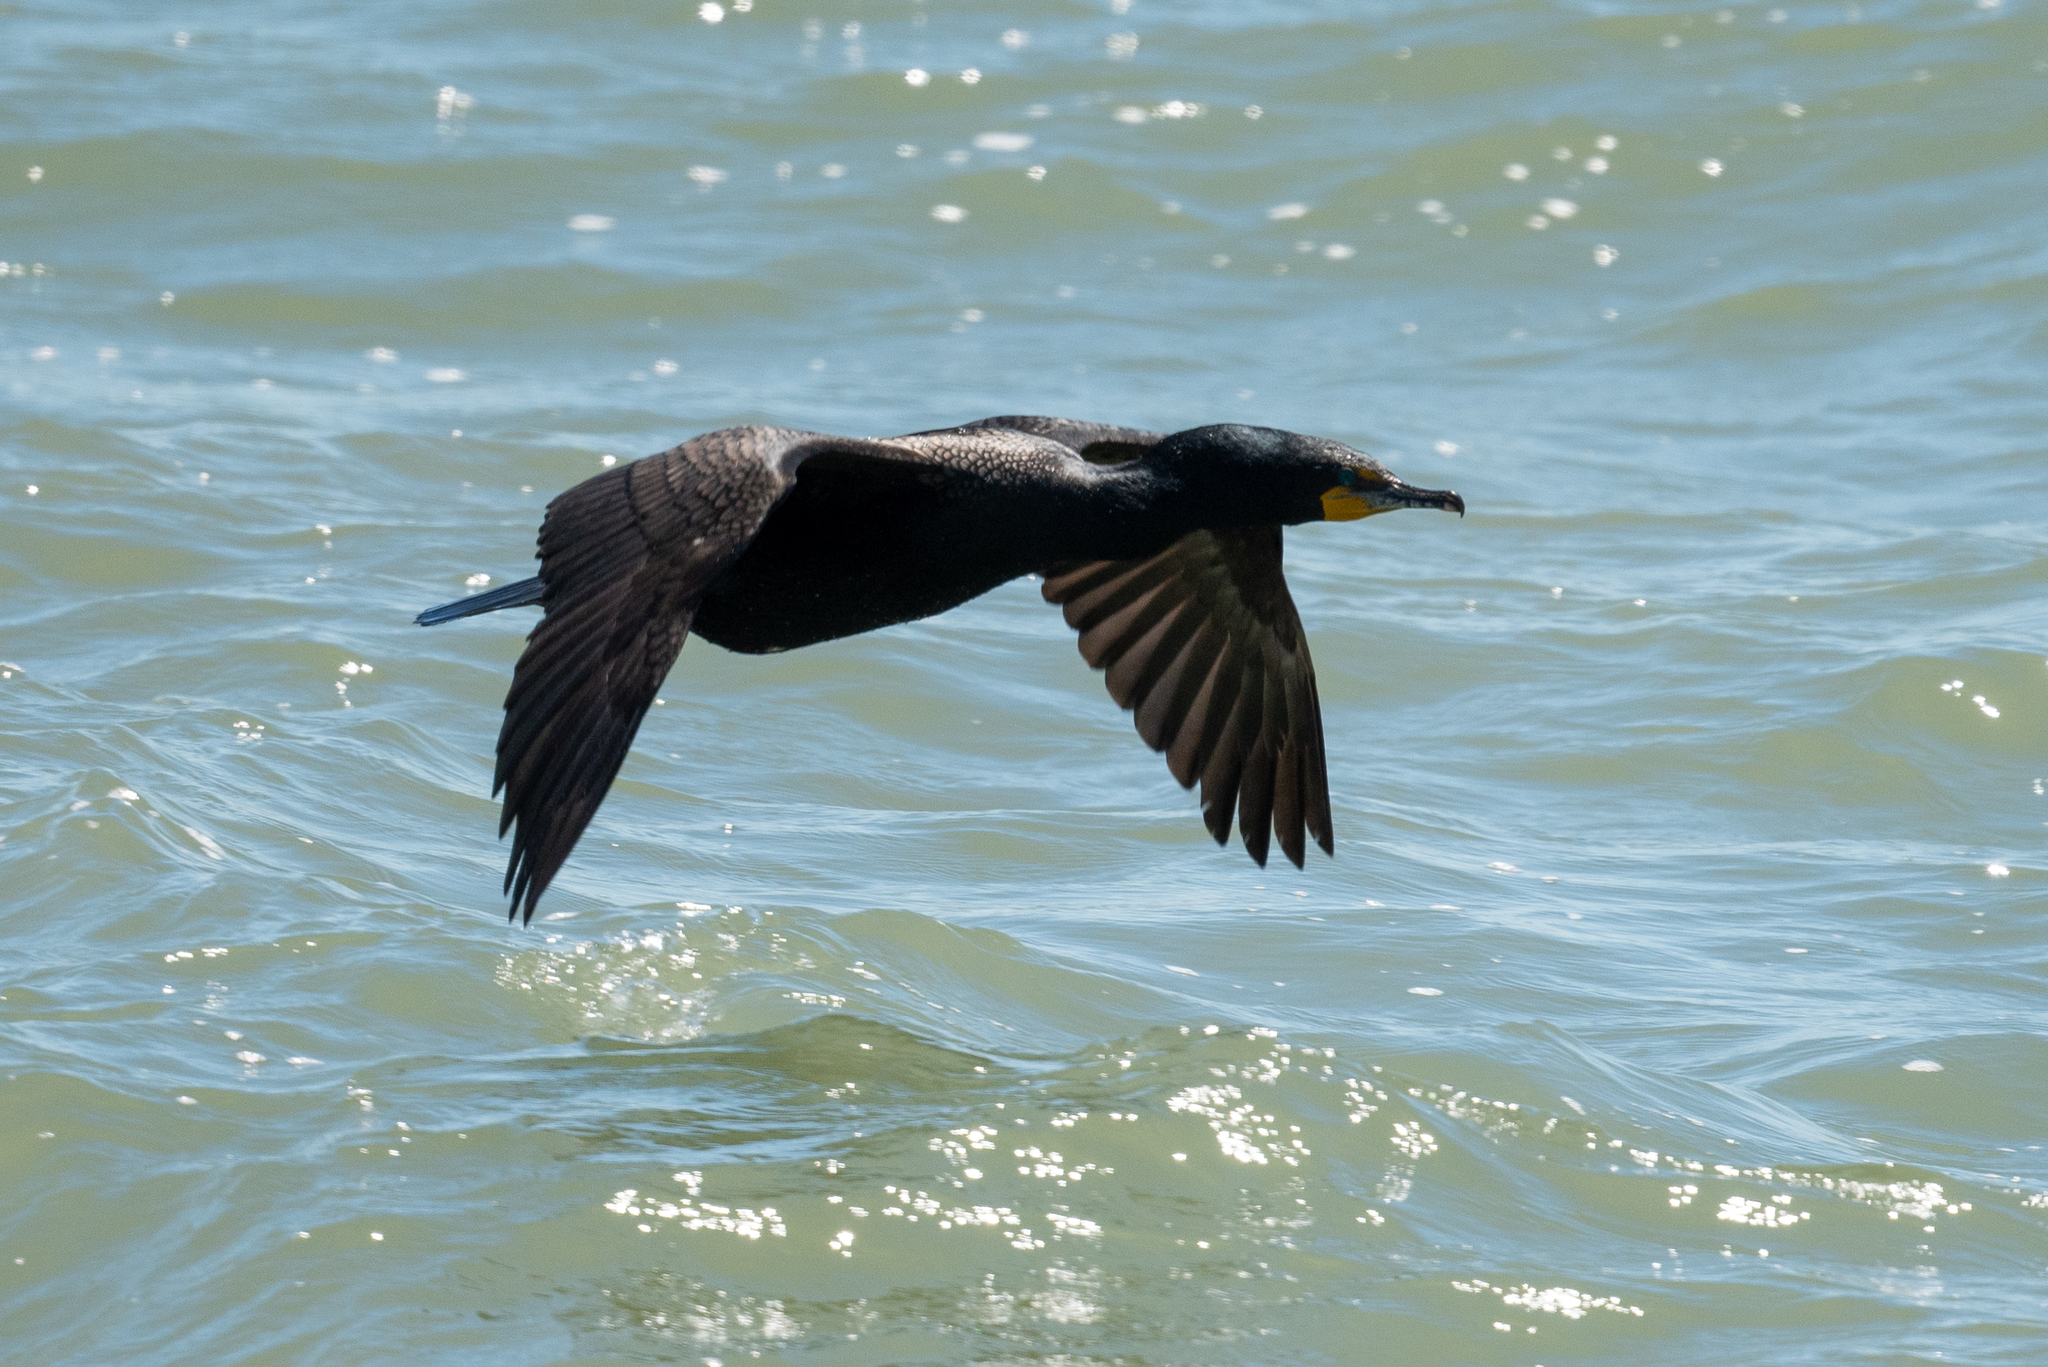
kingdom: Animalia
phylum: Chordata
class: Aves
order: Suliformes
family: Phalacrocoracidae
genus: Phalacrocorax
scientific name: Phalacrocorax auritus
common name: Double-crested cormorant
